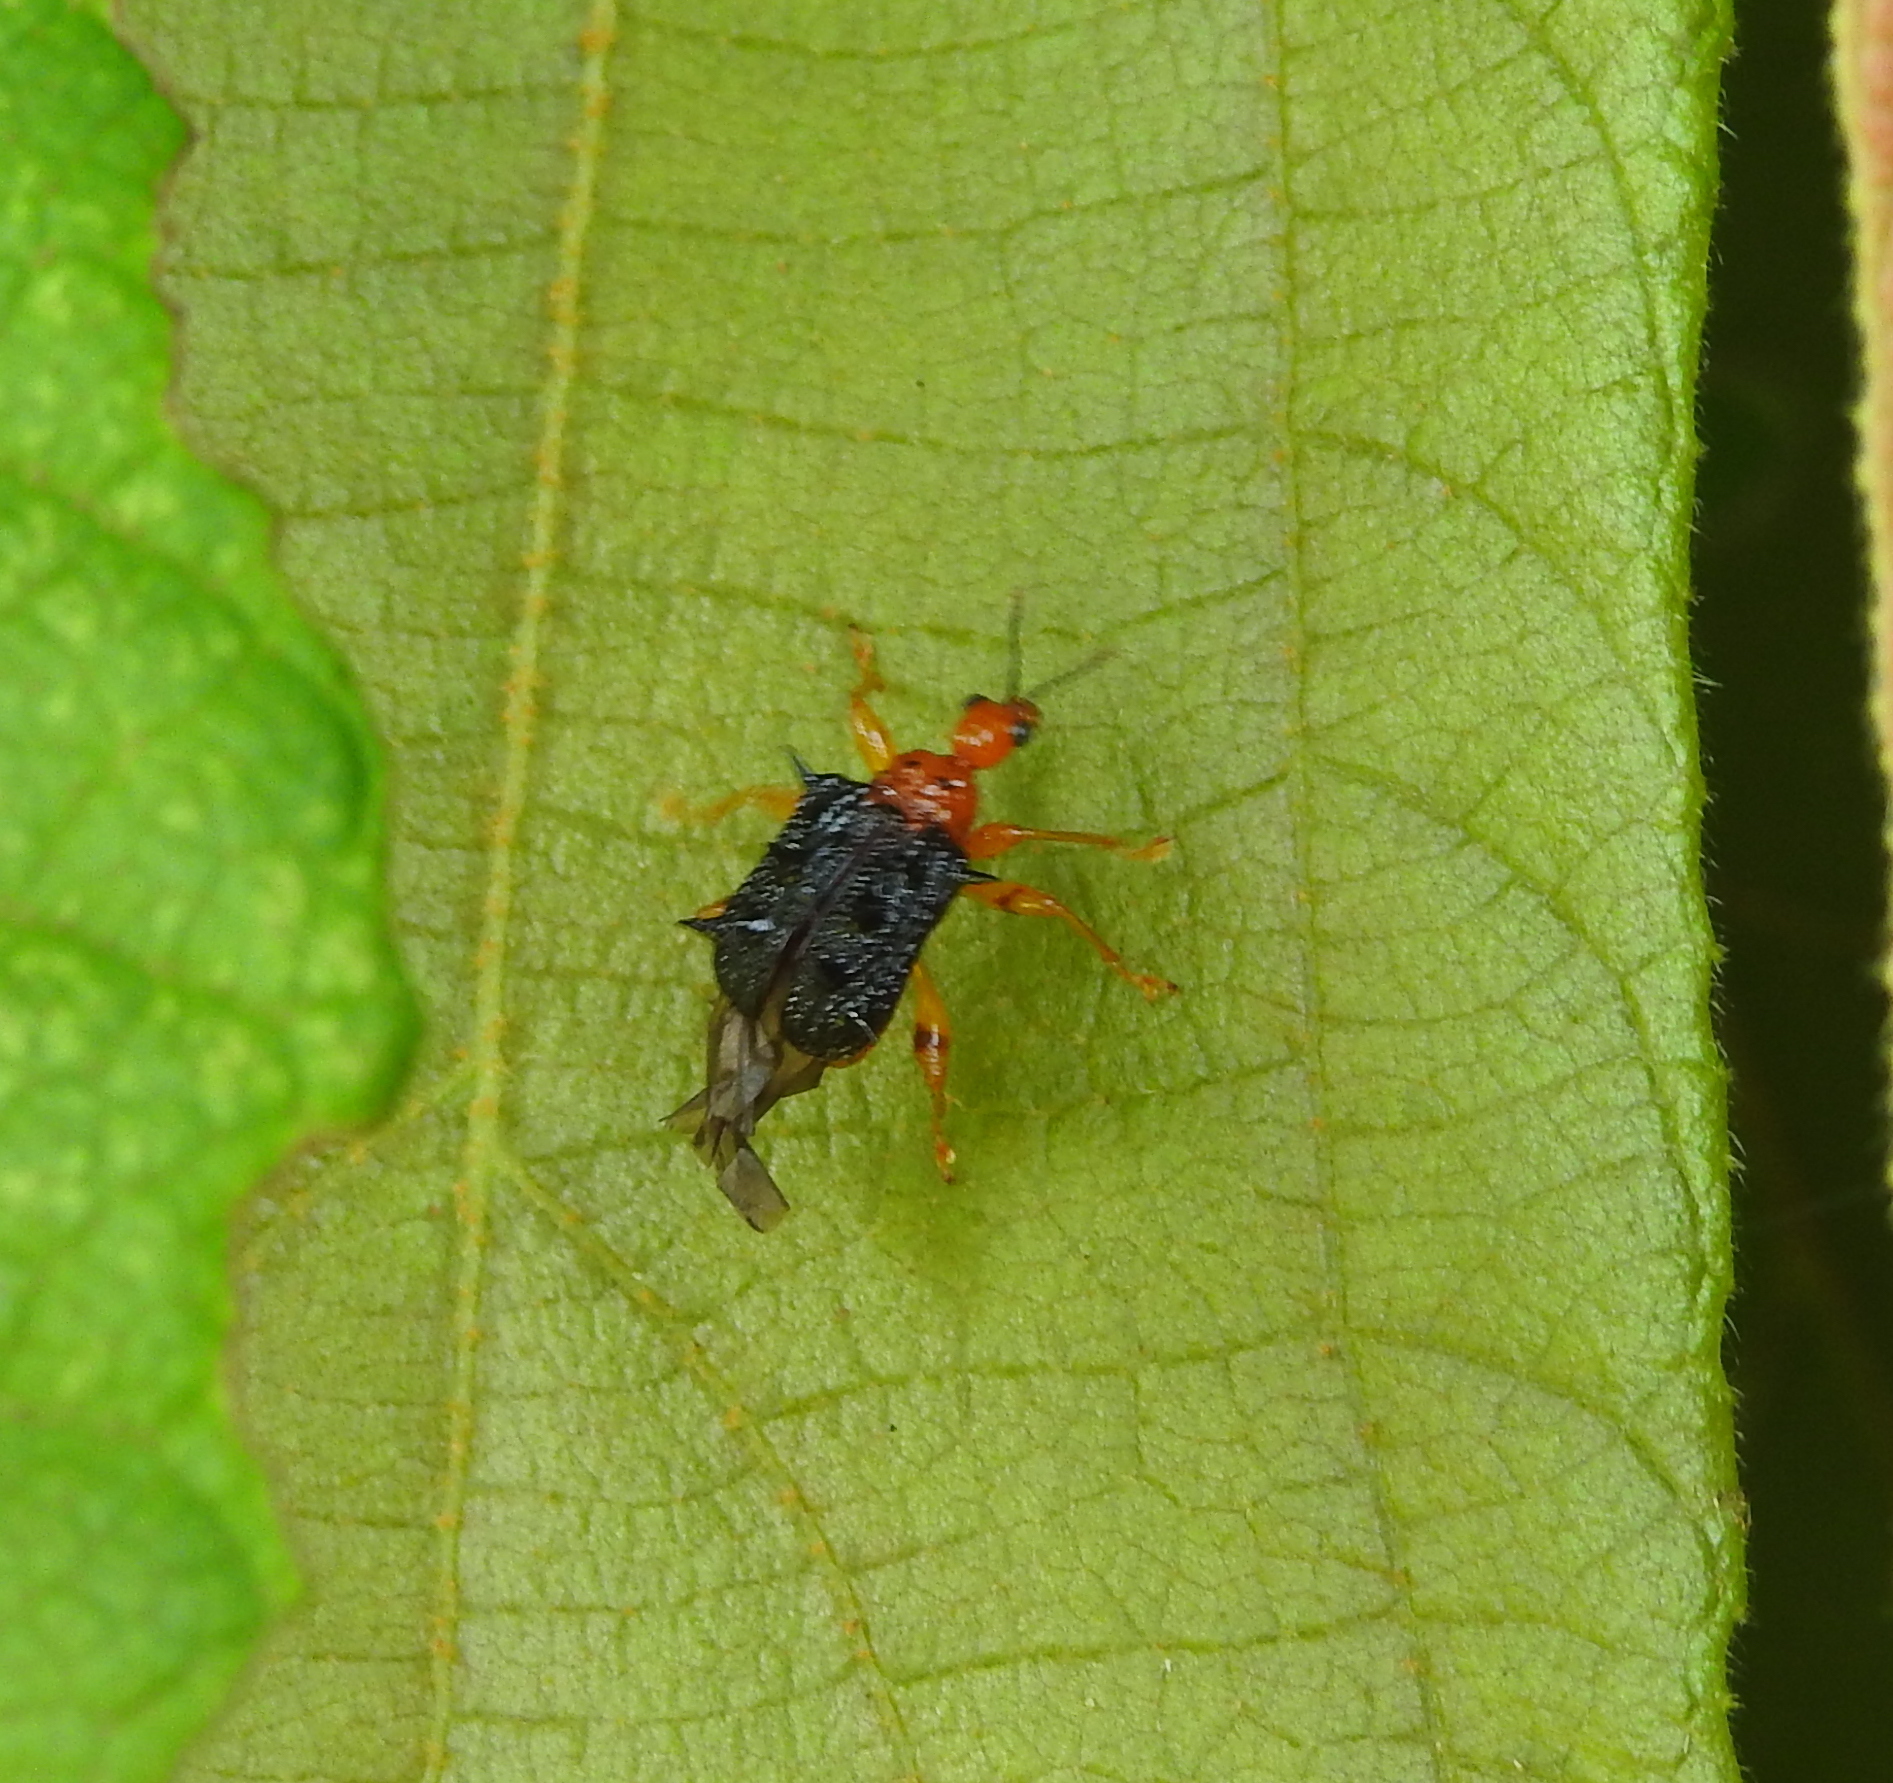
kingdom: Animalia
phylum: Arthropoda
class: Insecta
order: Coleoptera
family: Attelabidae
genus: Hoplapoderus
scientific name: Hoplapoderus hystrix
